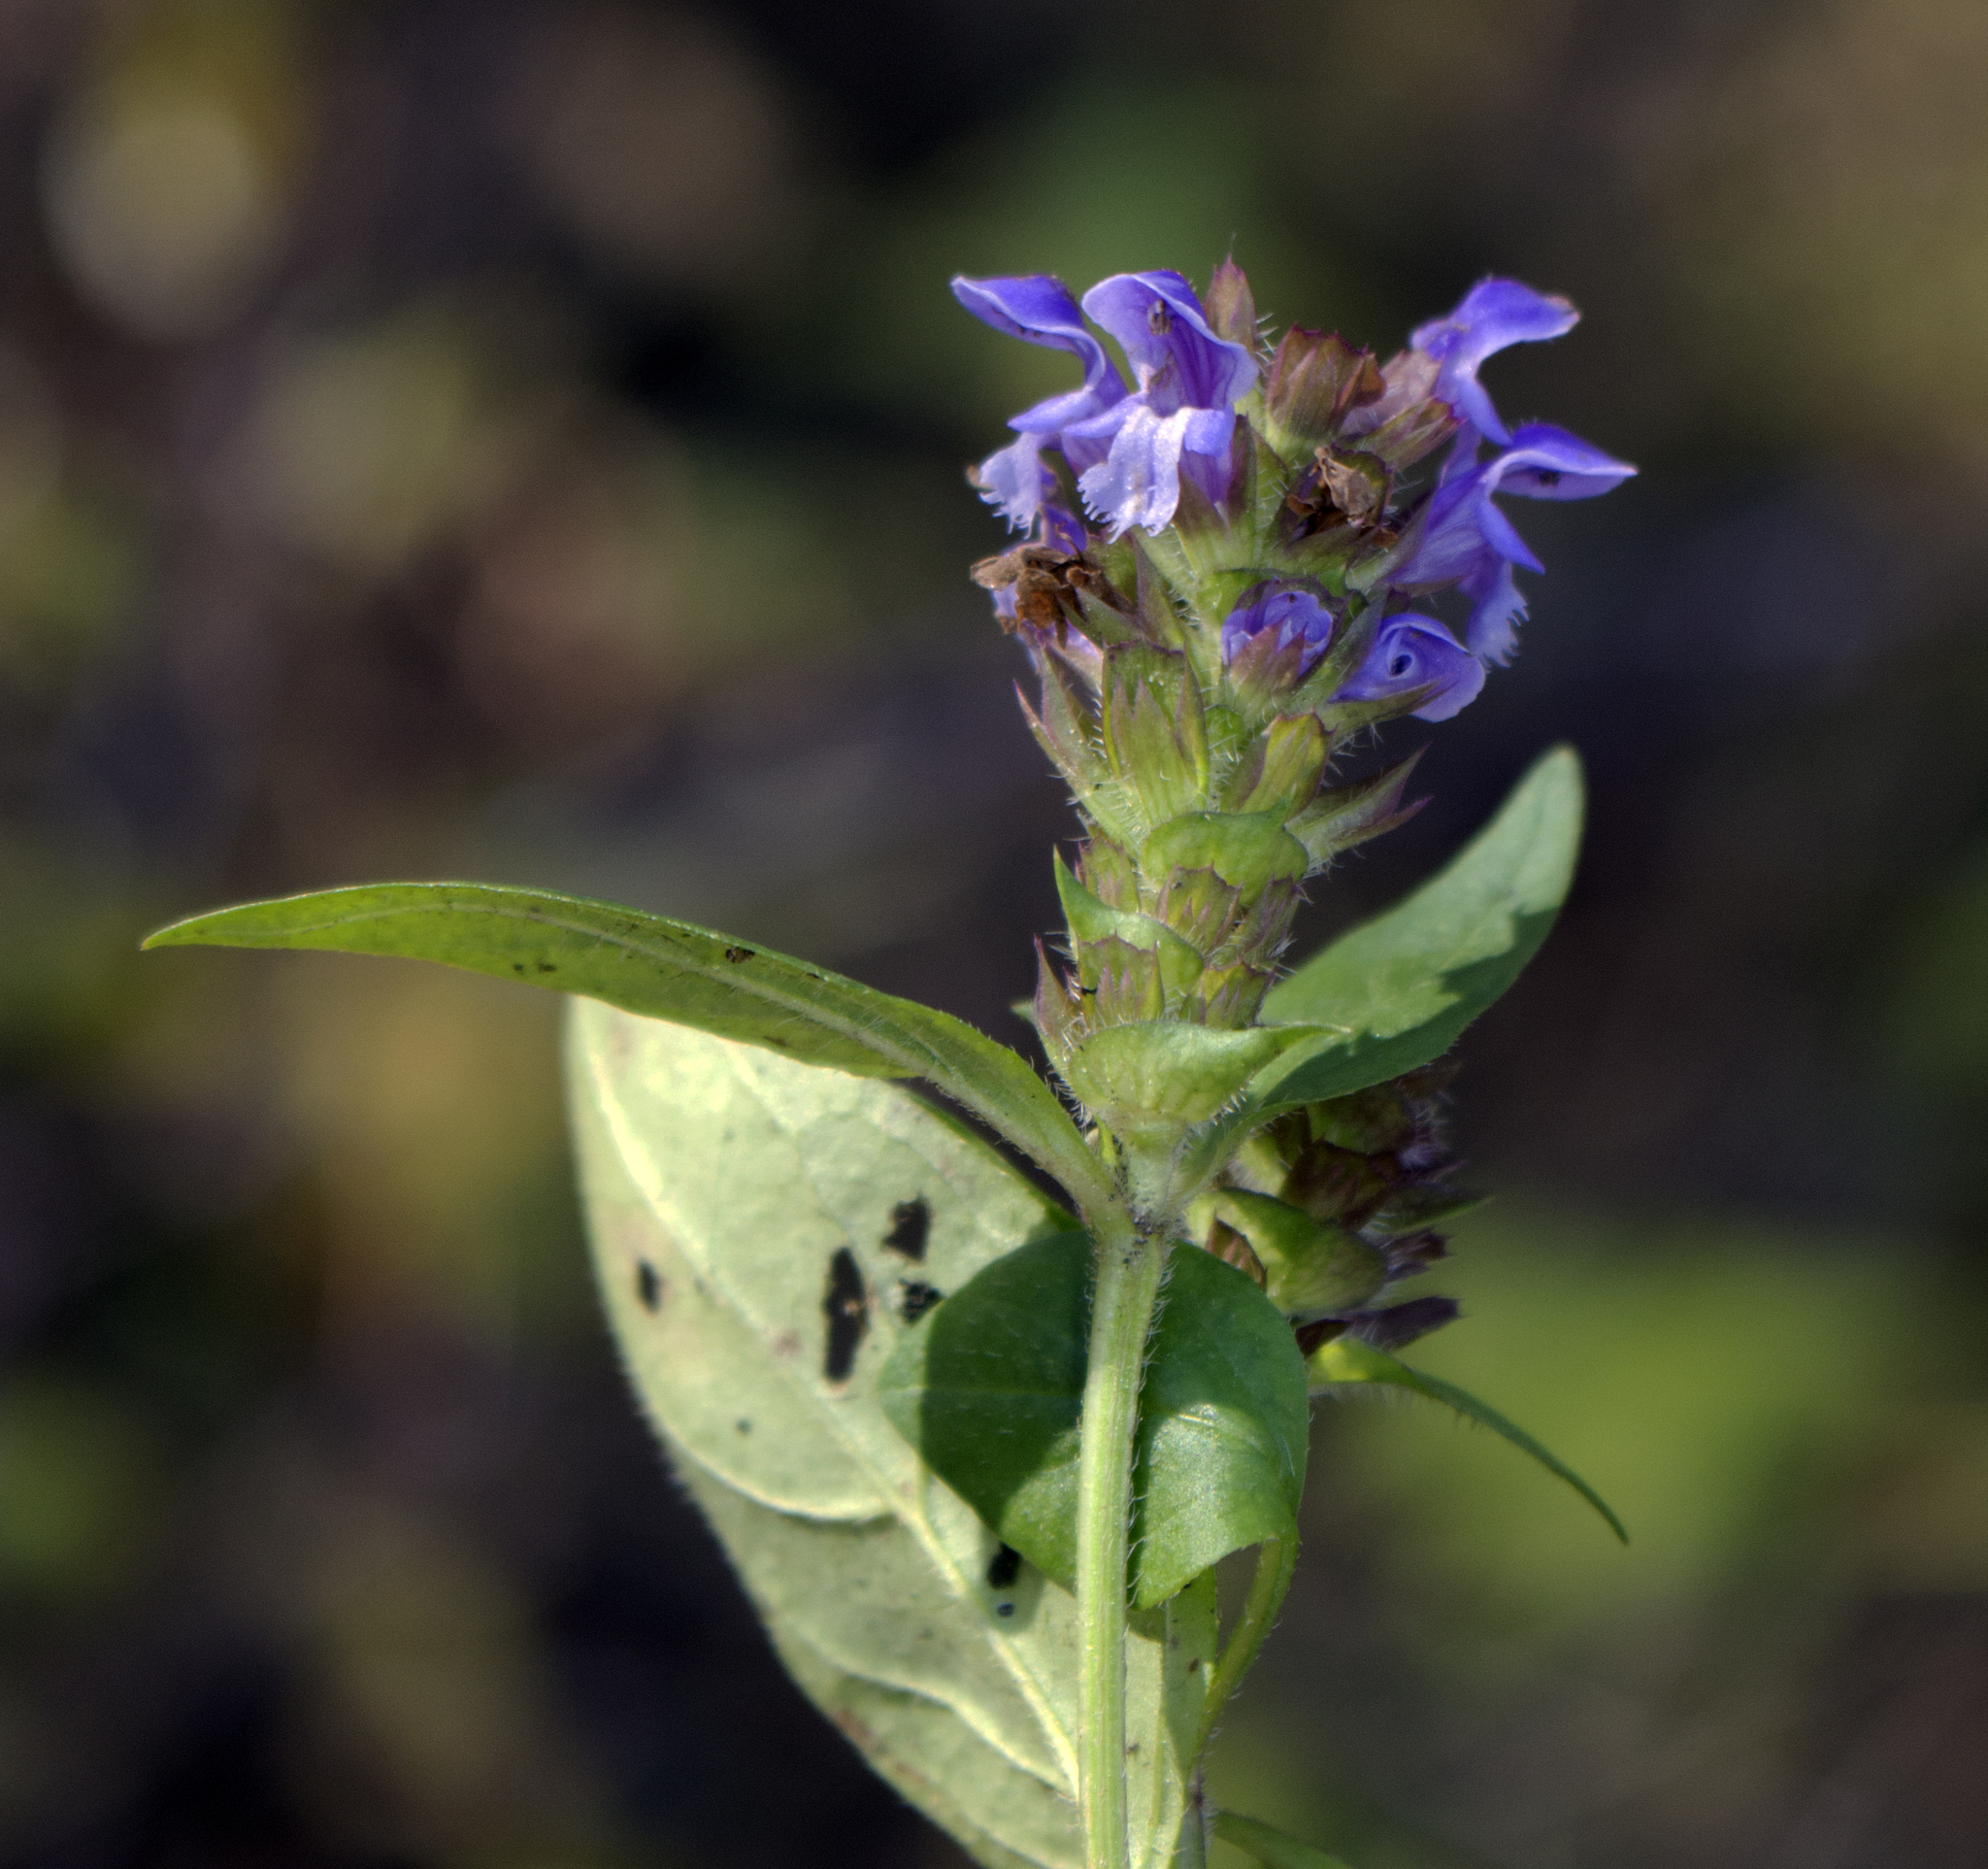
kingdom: Plantae
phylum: Tracheophyta
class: Magnoliopsida
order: Lamiales
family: Lamiaceae
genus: Prunella
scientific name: Prunella vulgaris
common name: Heal-all
